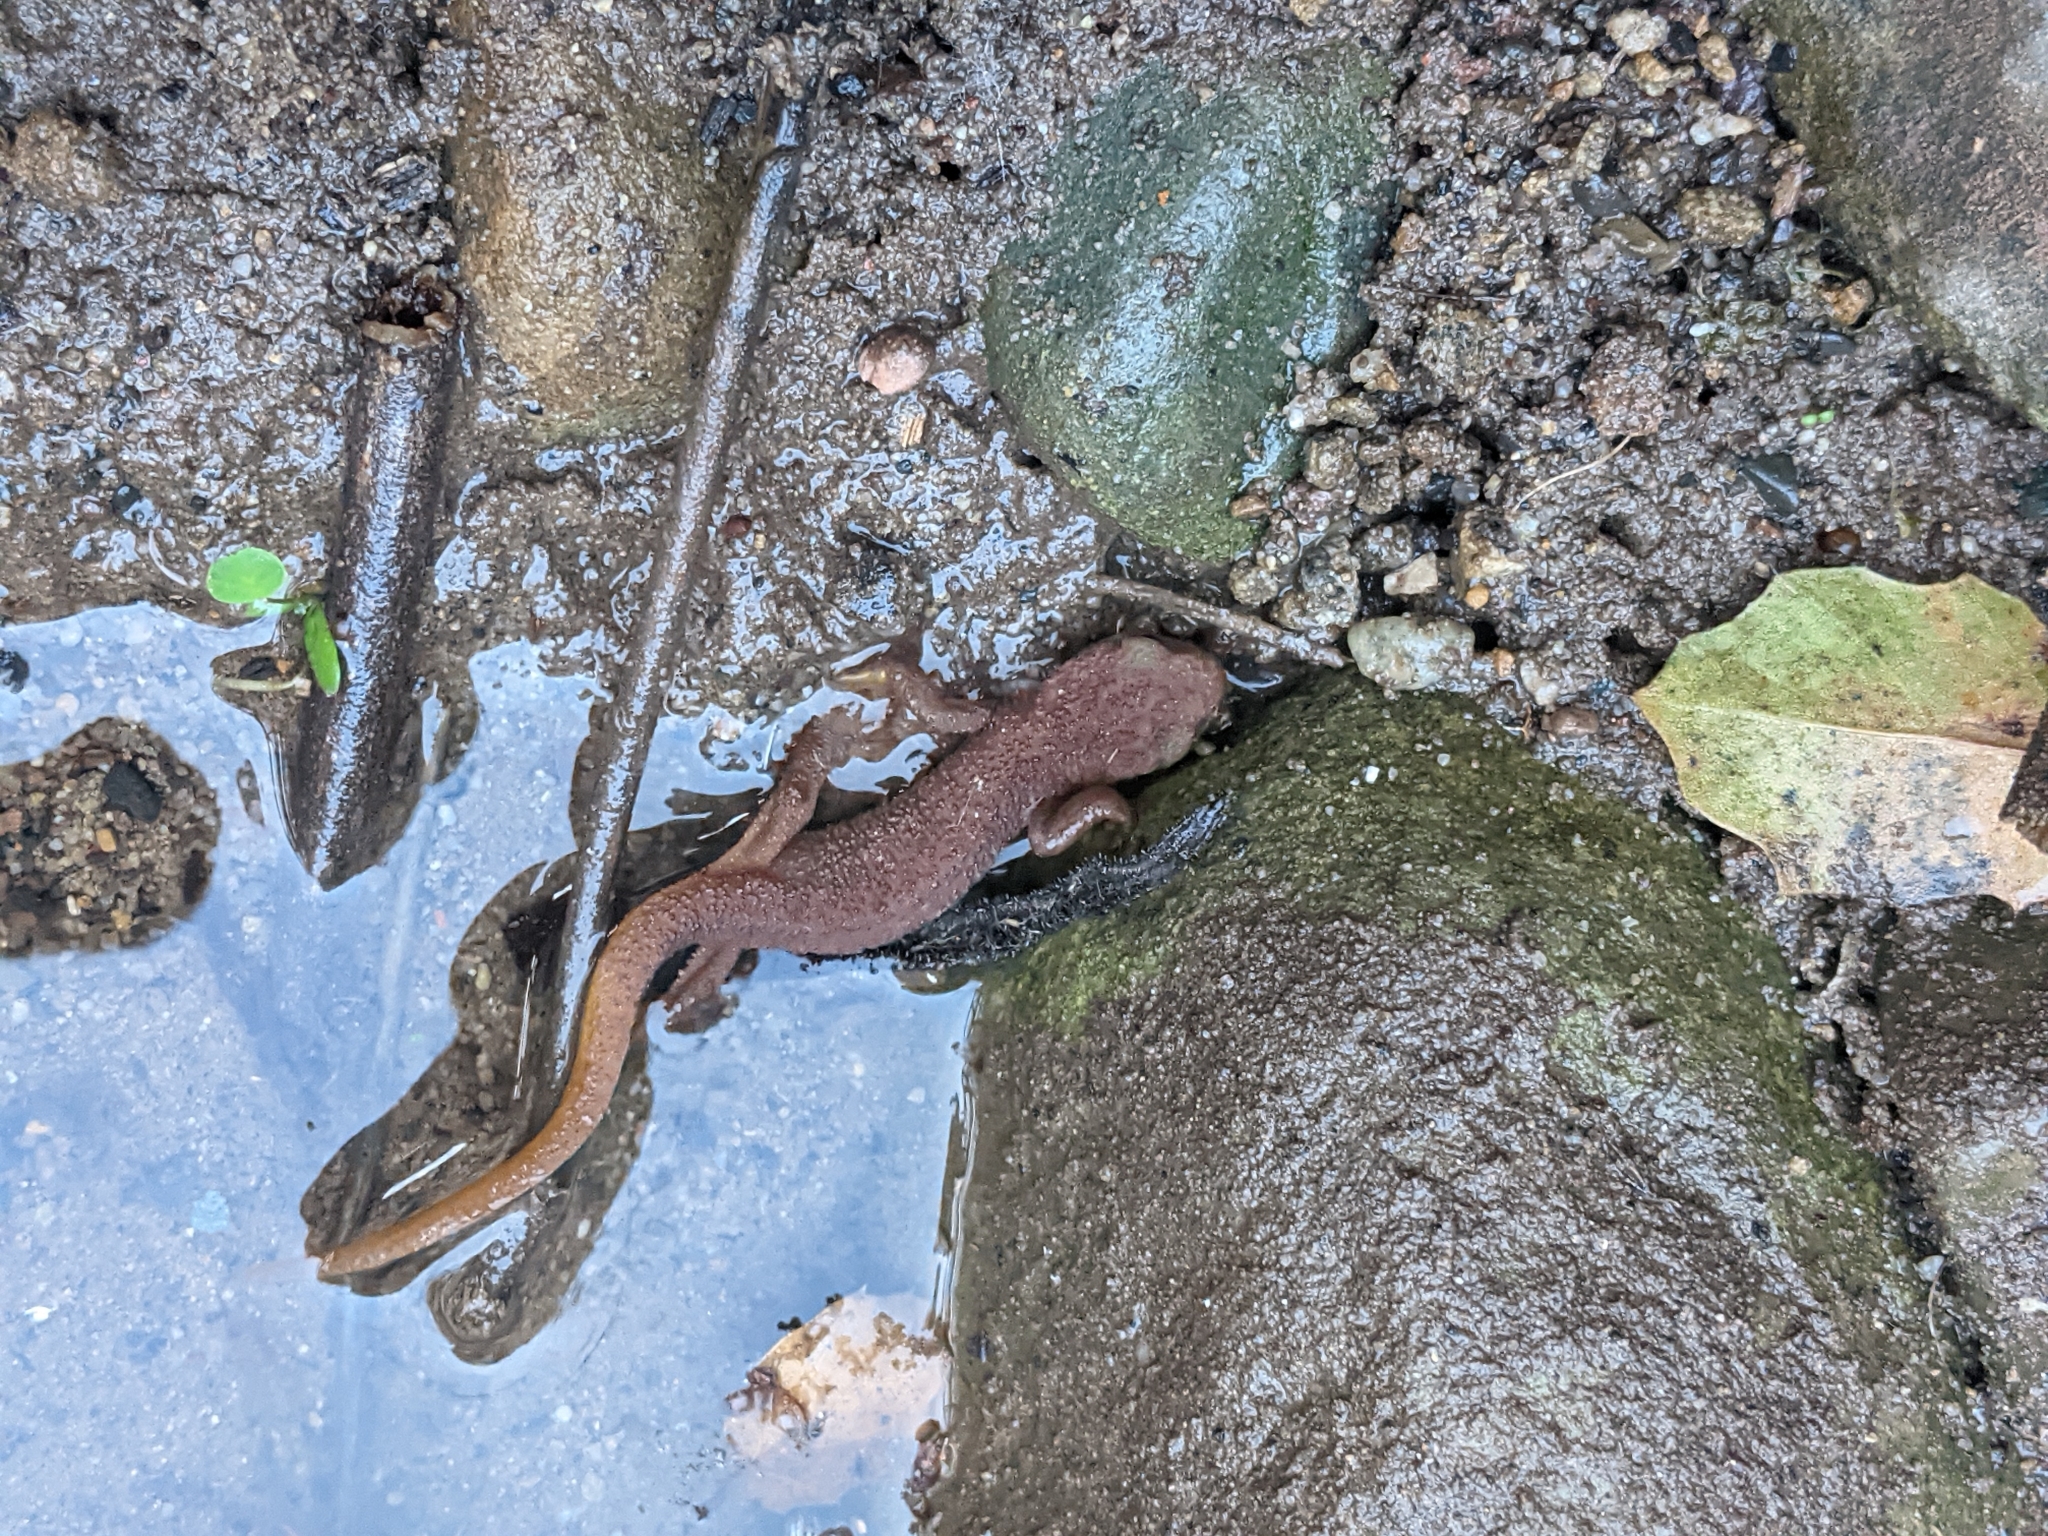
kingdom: Animalia
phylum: Chordata
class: Amphibia
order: Caudata
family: Salamandridae
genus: Taricha
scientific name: Taricha torosa
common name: California newt
